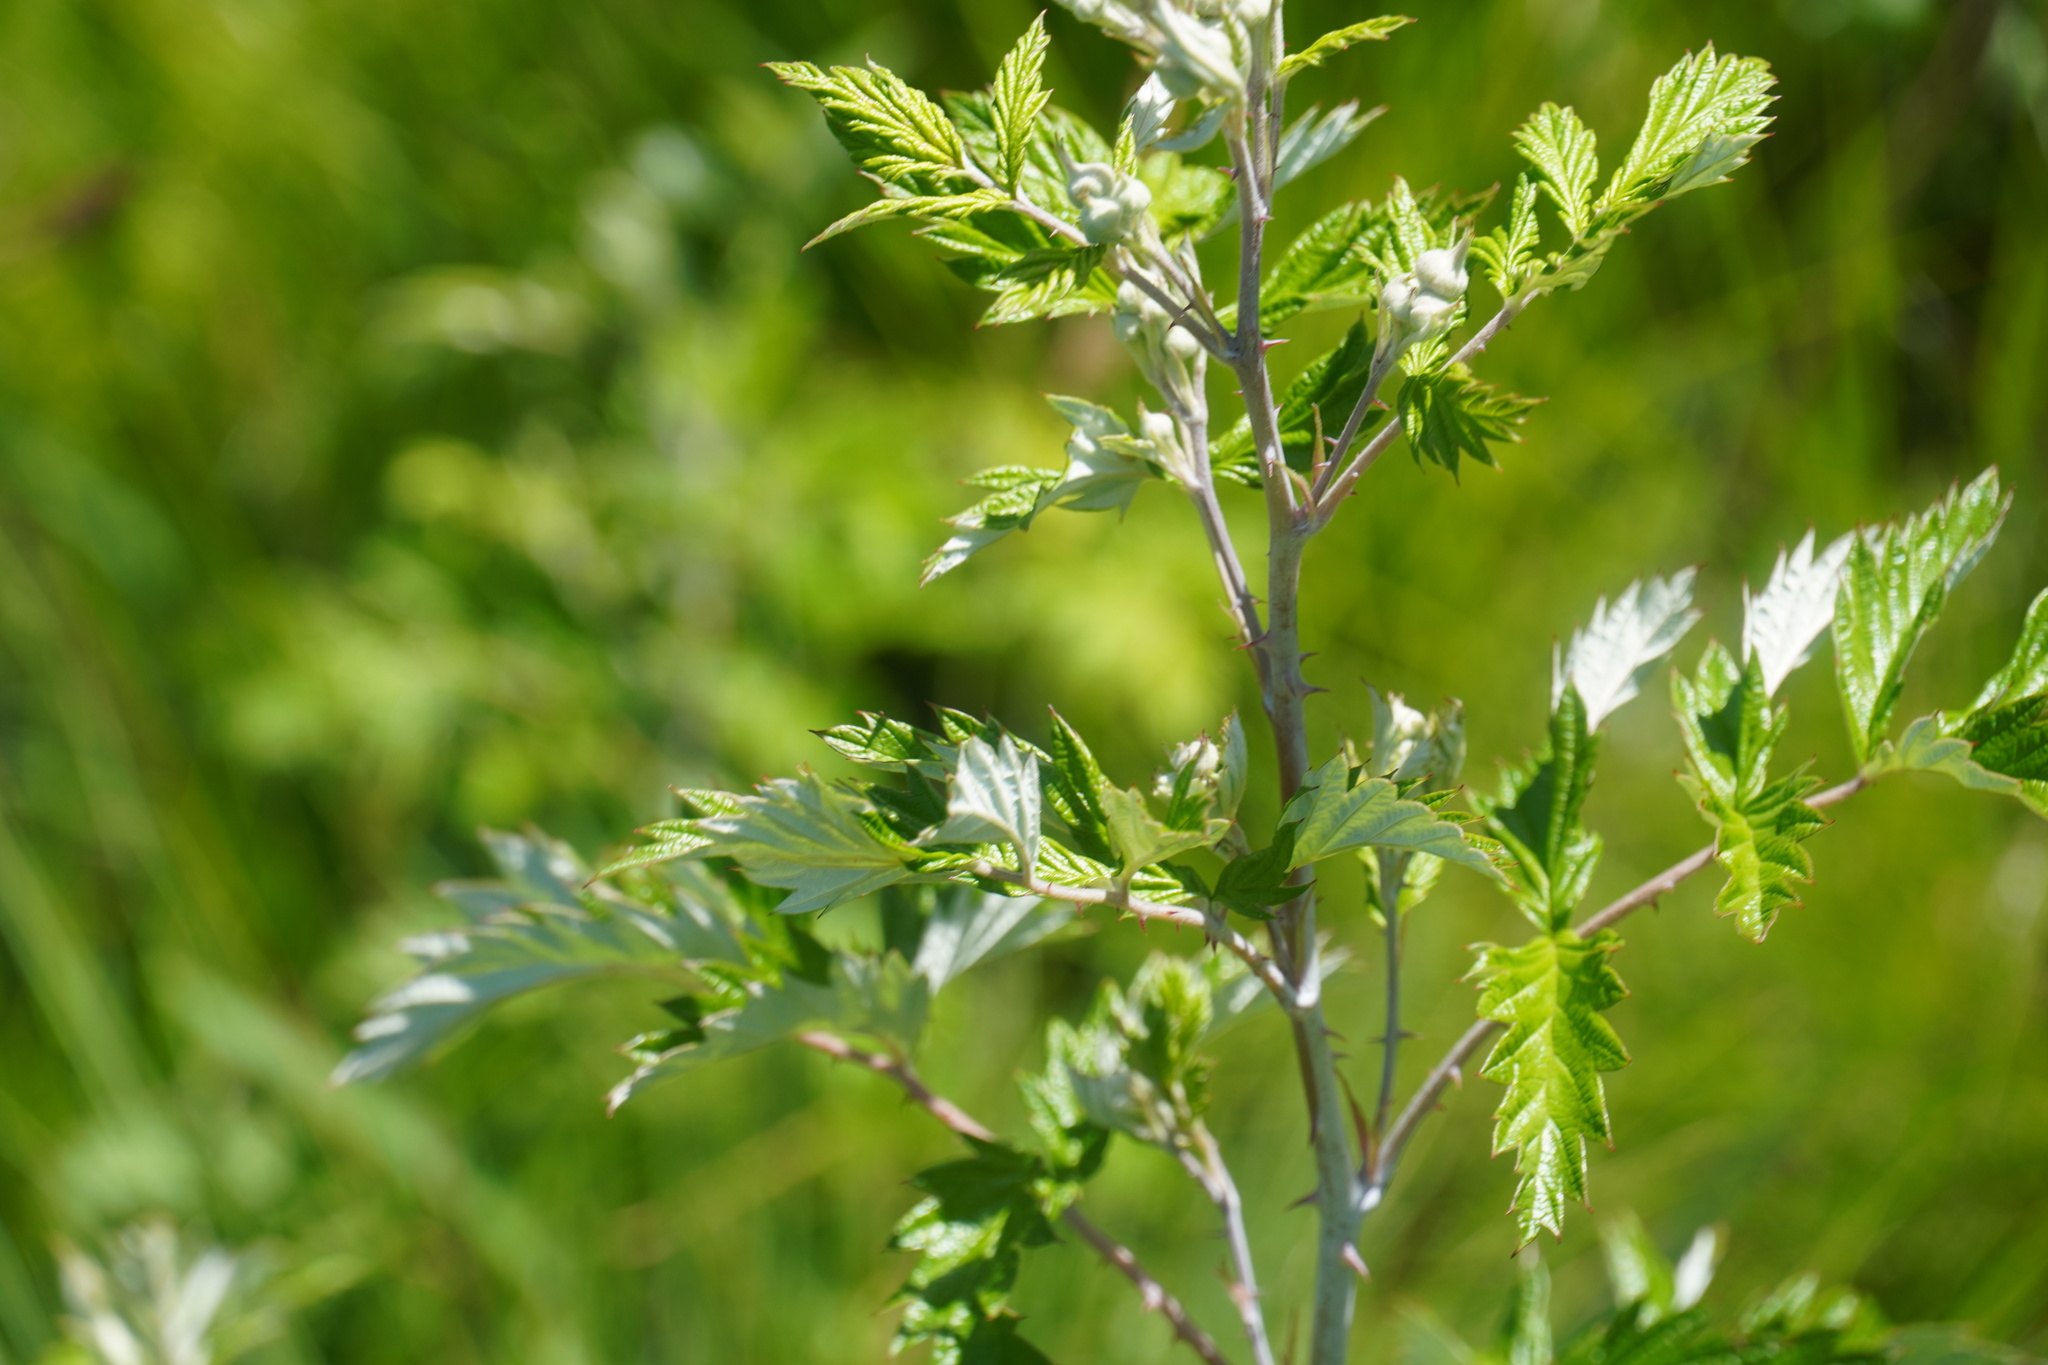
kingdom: Plantae
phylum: Tracheophyta
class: Magnoliopsida
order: Rosales
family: Rosaceae
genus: Rubus
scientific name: Rubus ludwigii
